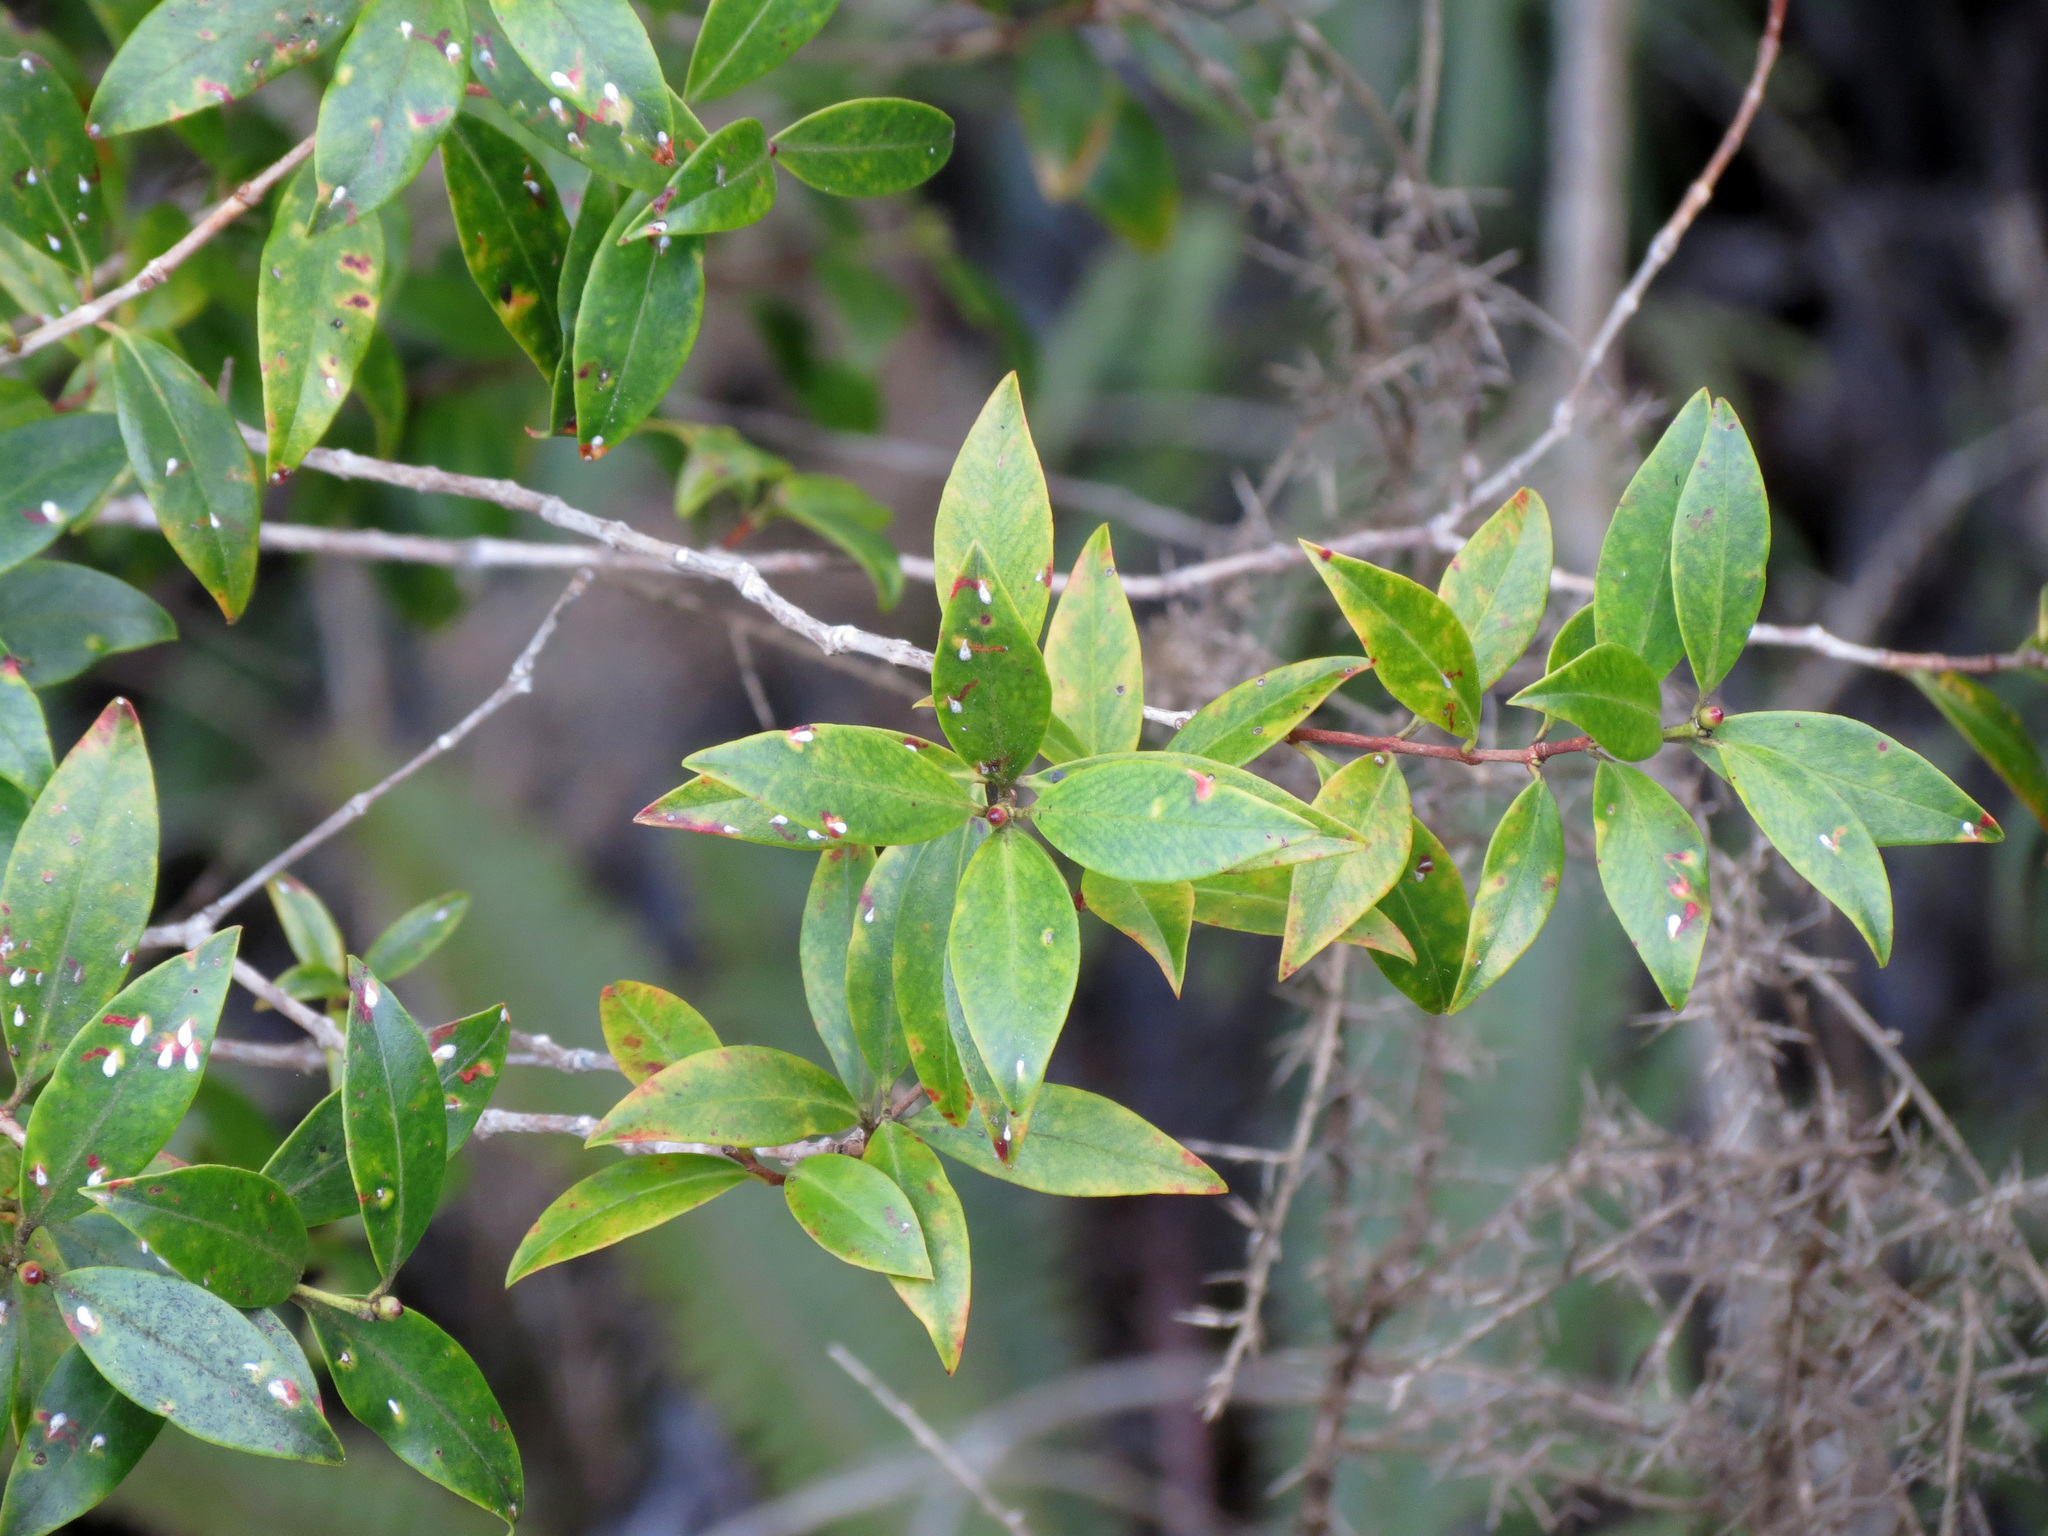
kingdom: Plantae
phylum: Tracheophyta
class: Magnoliopsida
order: Myrtales
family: Myrtaceae
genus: Metrosideros
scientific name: Metrosideros umbellata
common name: Southern rata
